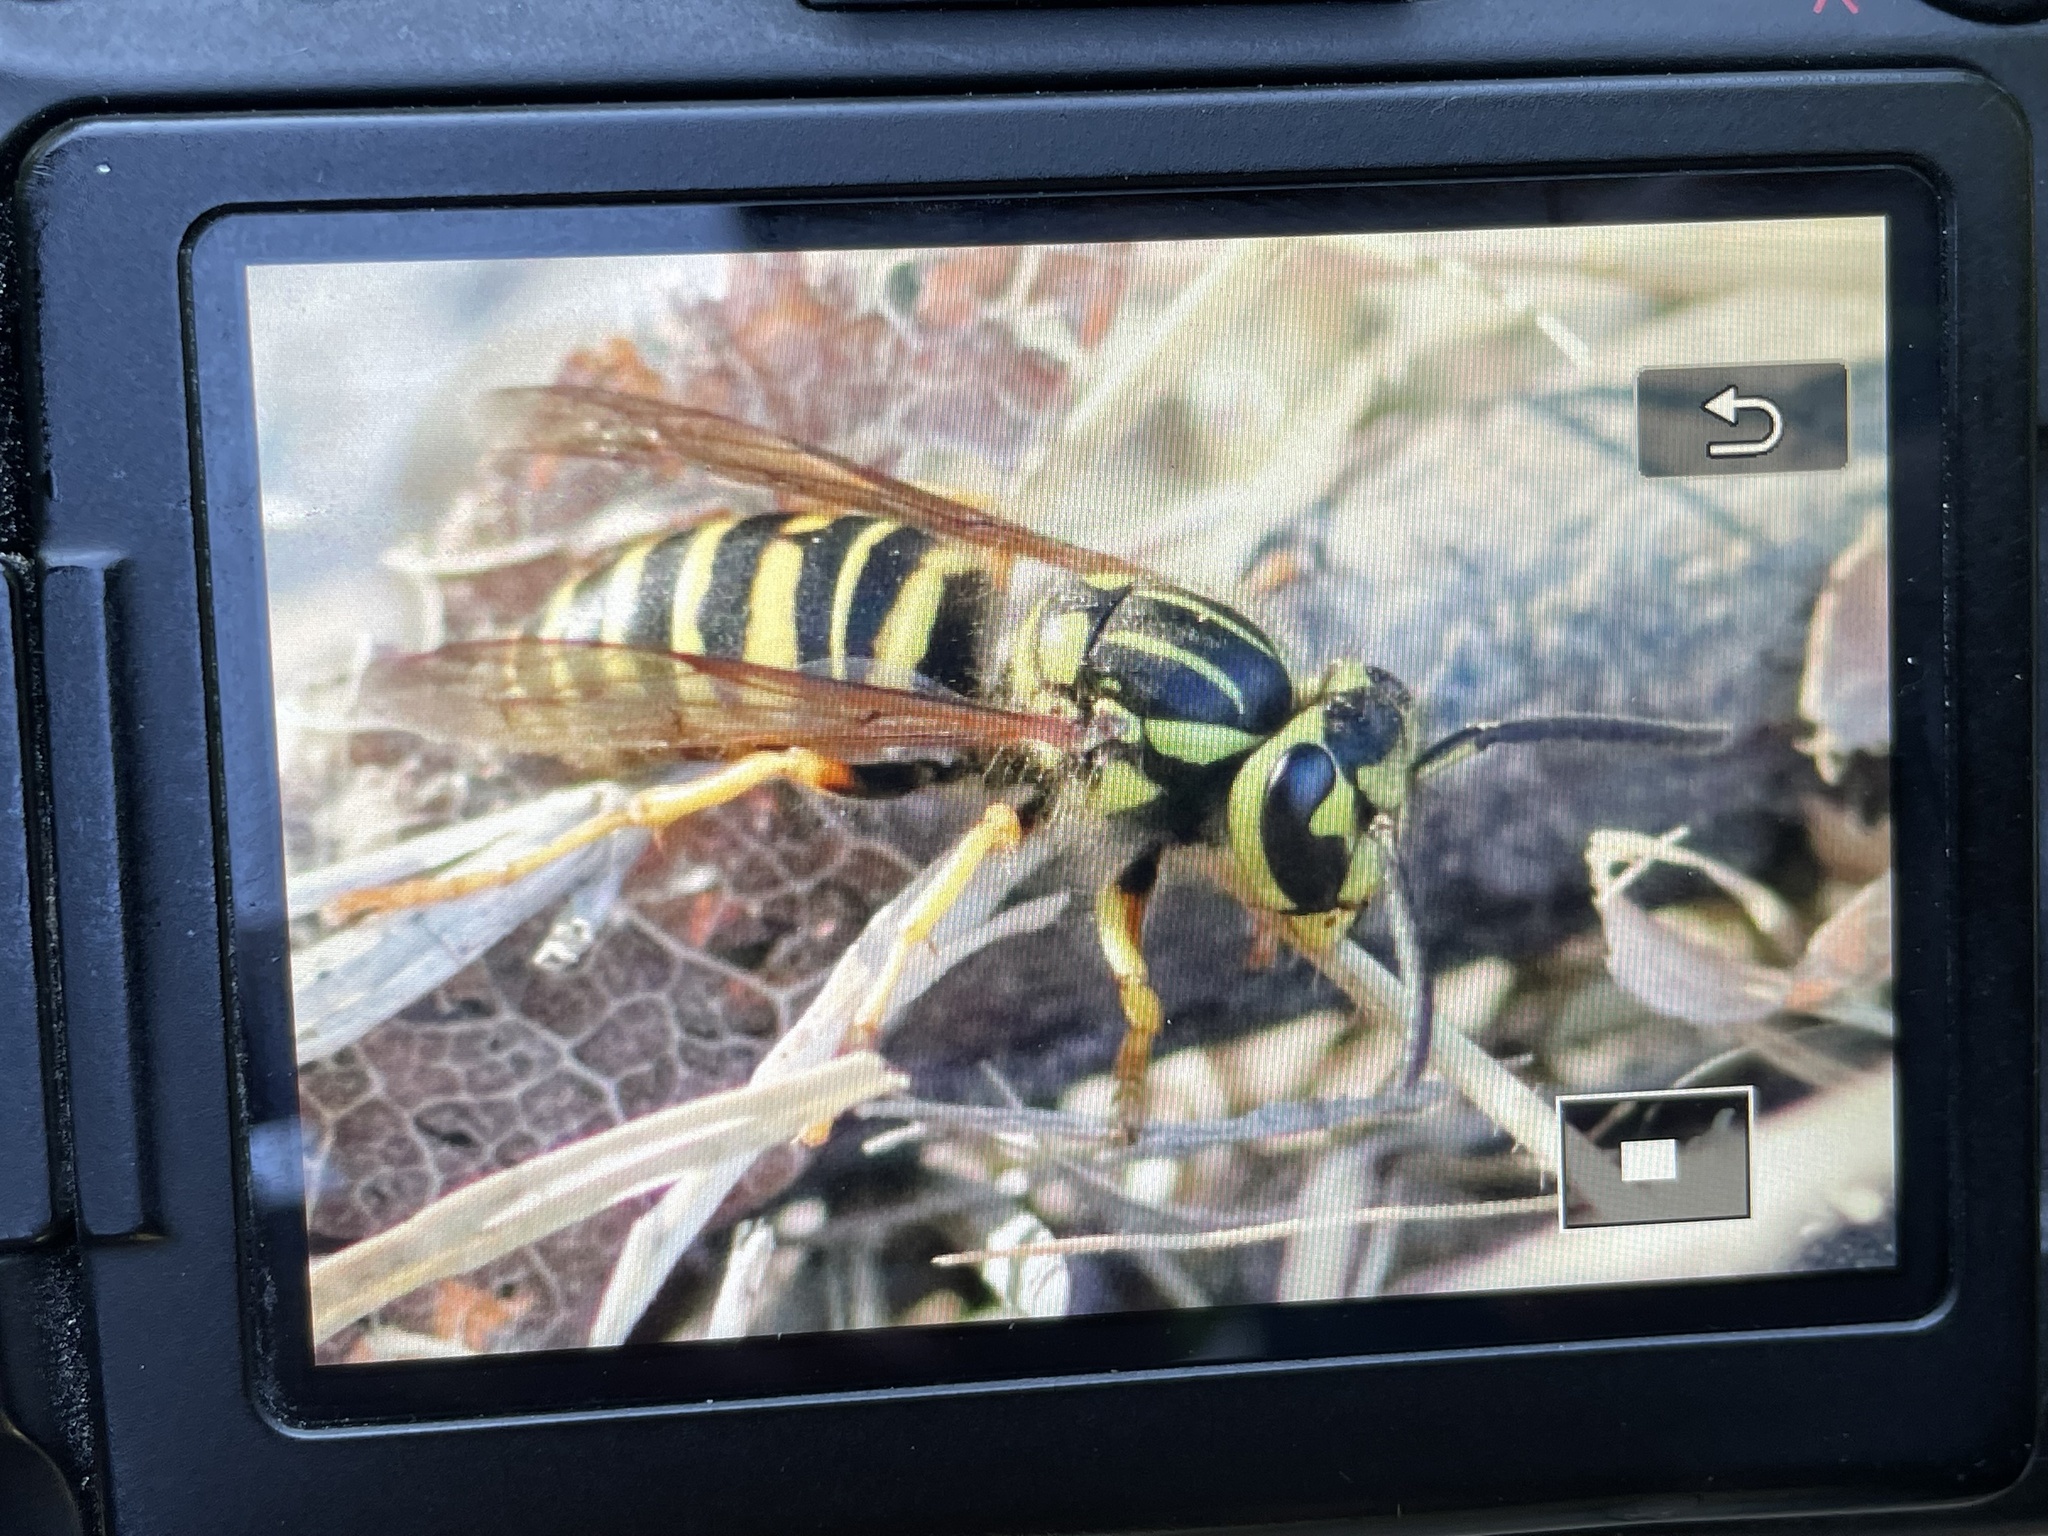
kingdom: Animalia
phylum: Arthropoda
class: Insecta
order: Hymenoptera
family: Vespidae
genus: Vespula
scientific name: Vespula squamosa
